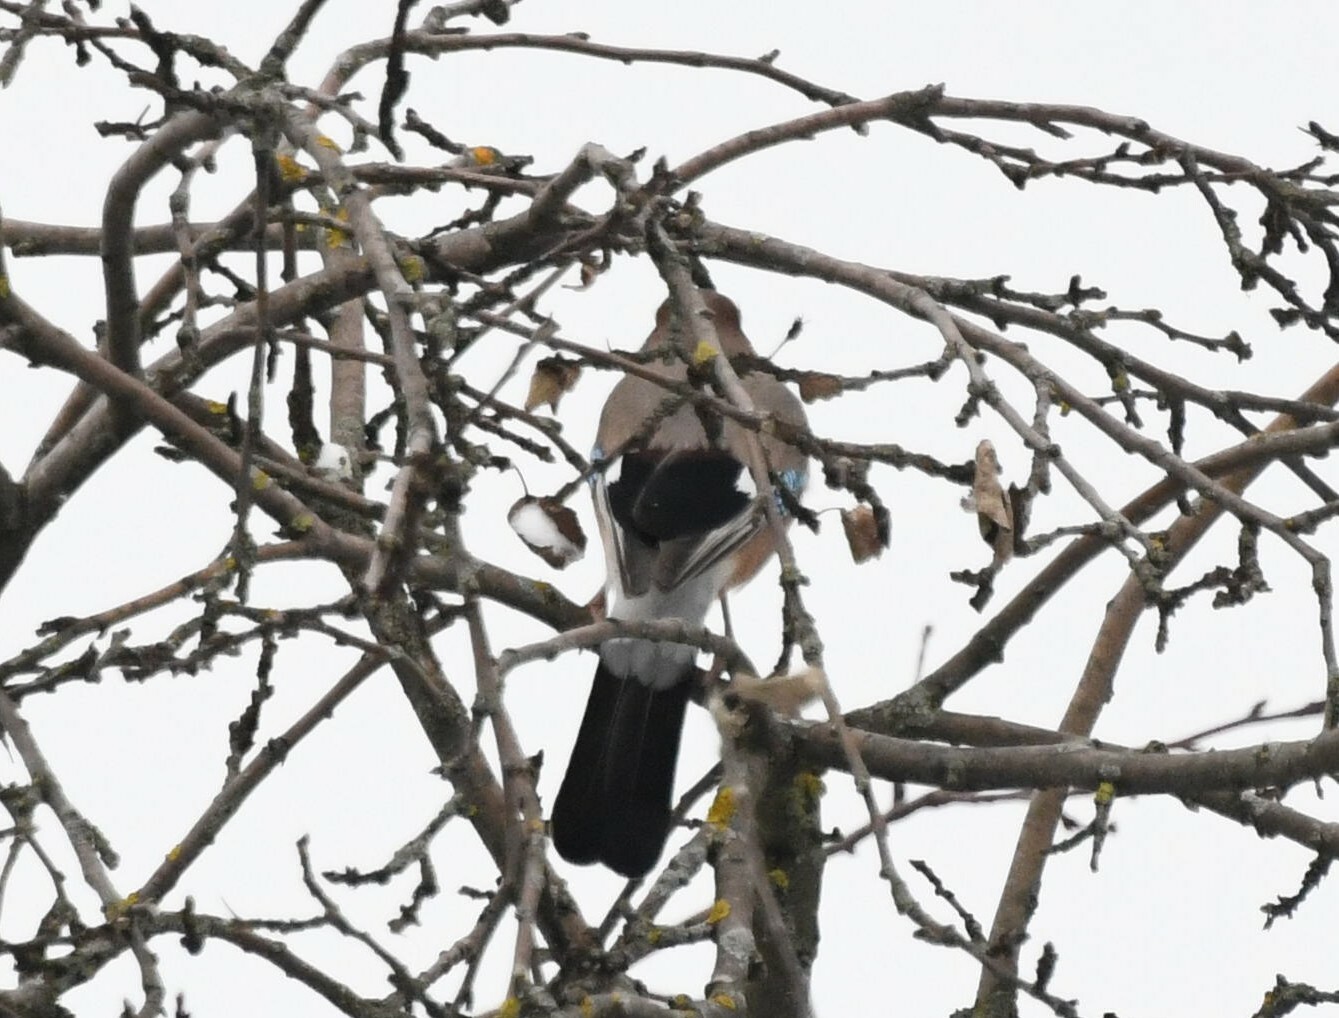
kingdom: Animalia
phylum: Chordata
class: Aves
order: Passeriformes
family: Corvidae
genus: Garrulus
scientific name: Garrulus glandarius
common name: Eurasian jay
